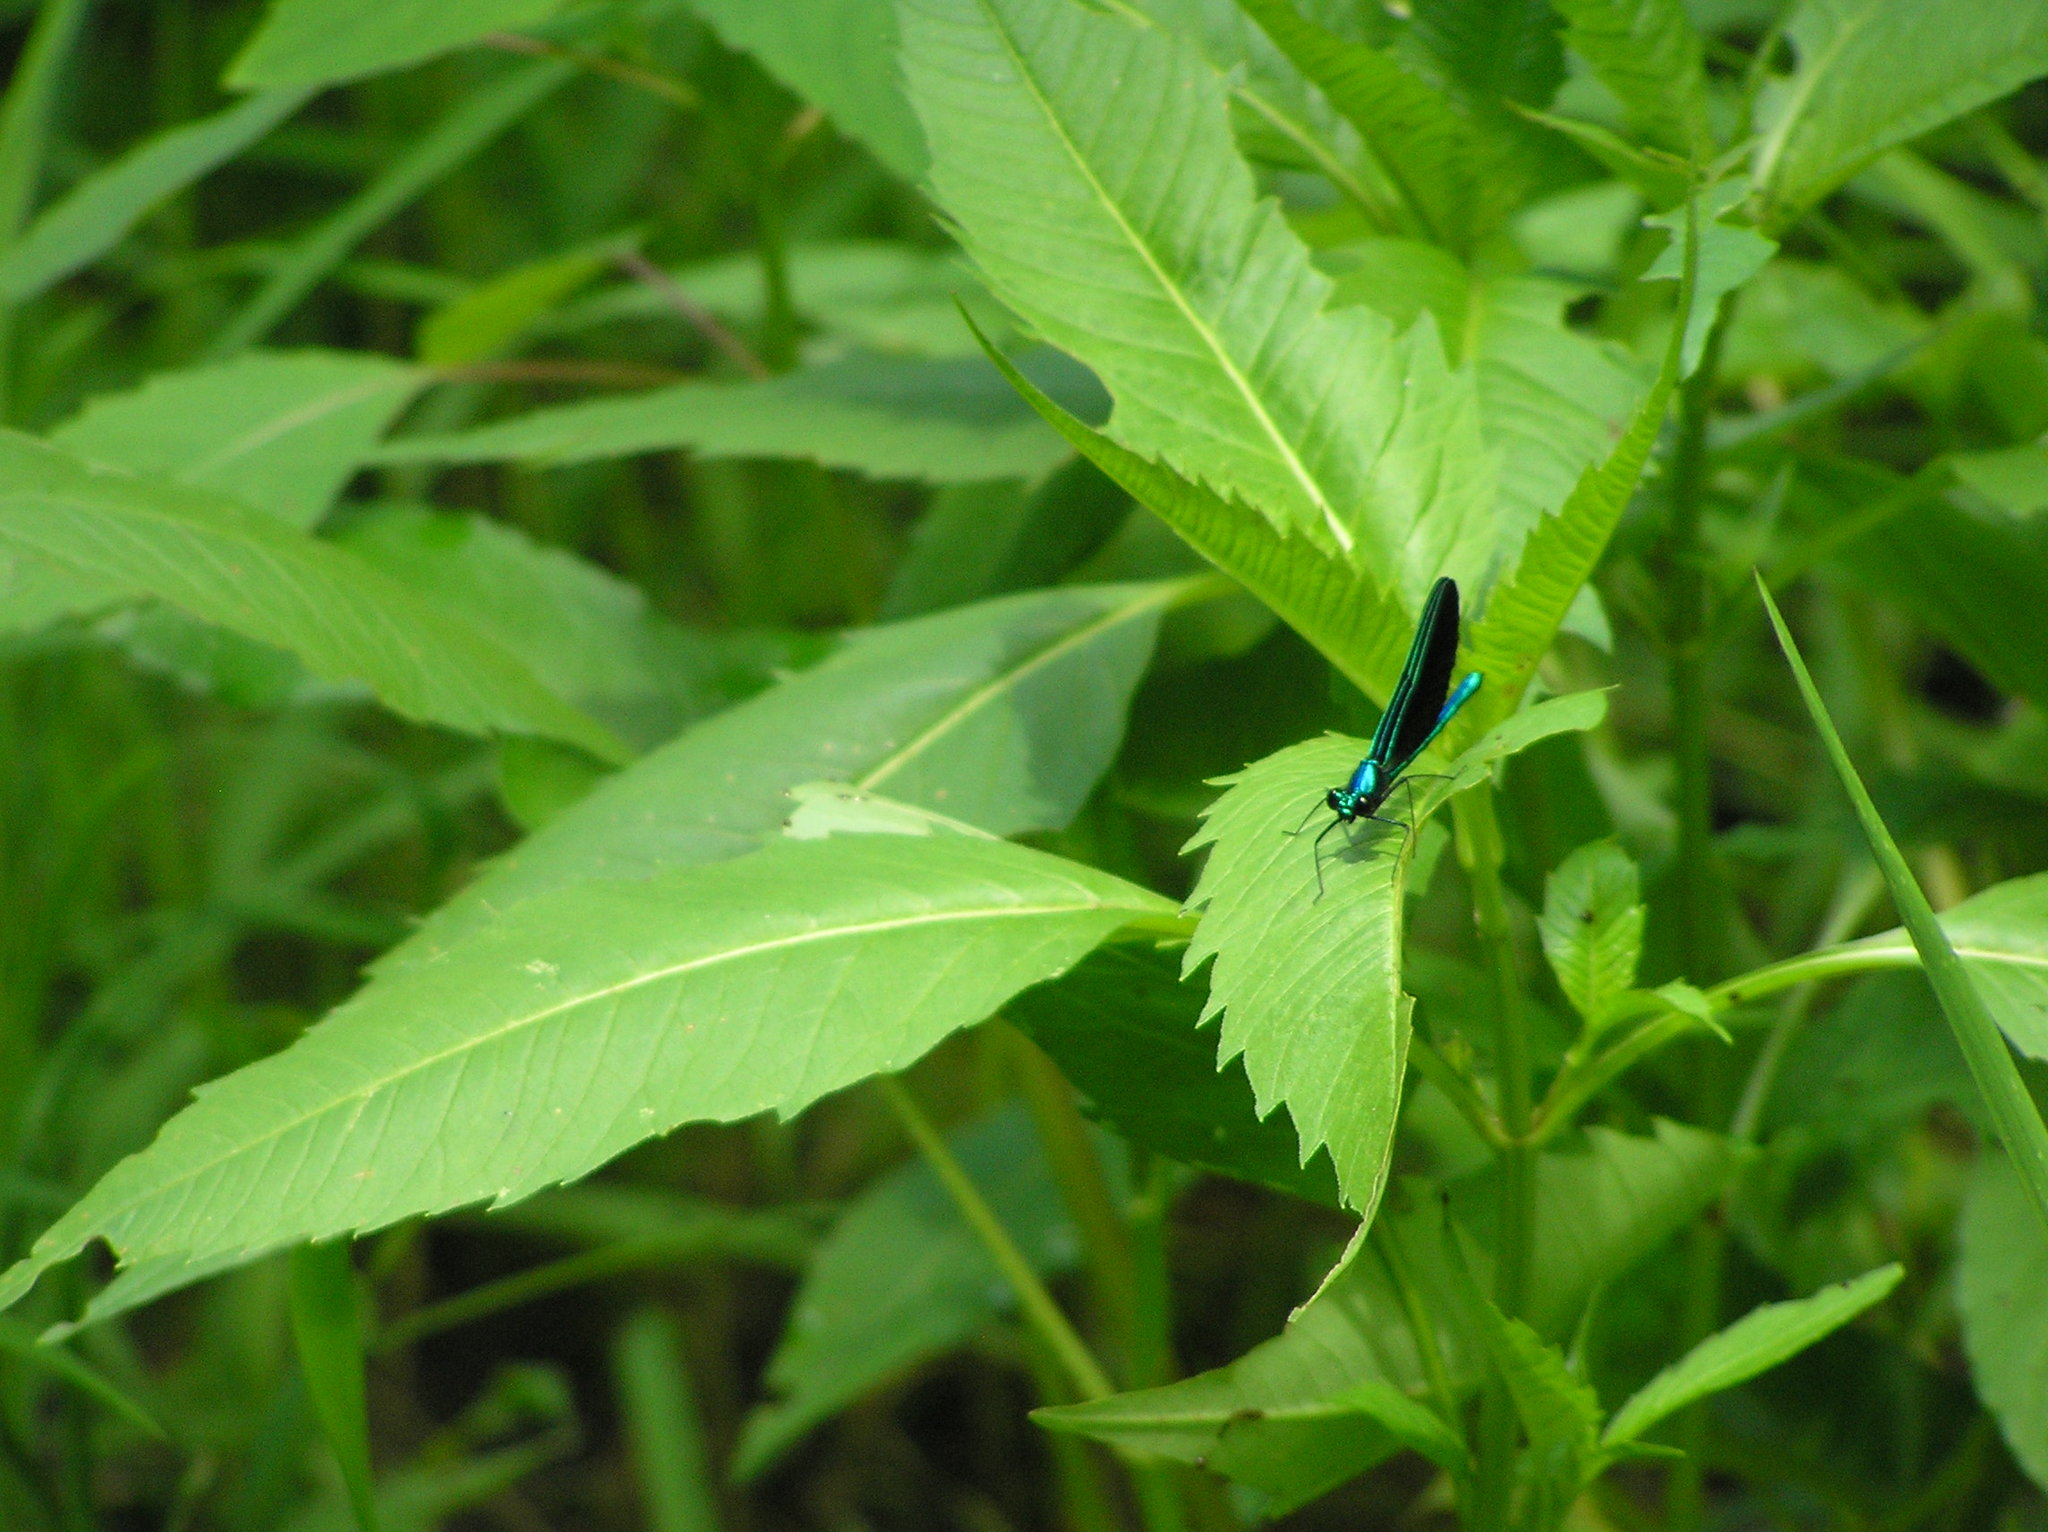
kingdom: Animalia
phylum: Arthropoda
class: Insecta
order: Odonata
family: Calopterygidae
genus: Calopteryx
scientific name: Calopteryx maculata
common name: Ebony jewelwing
